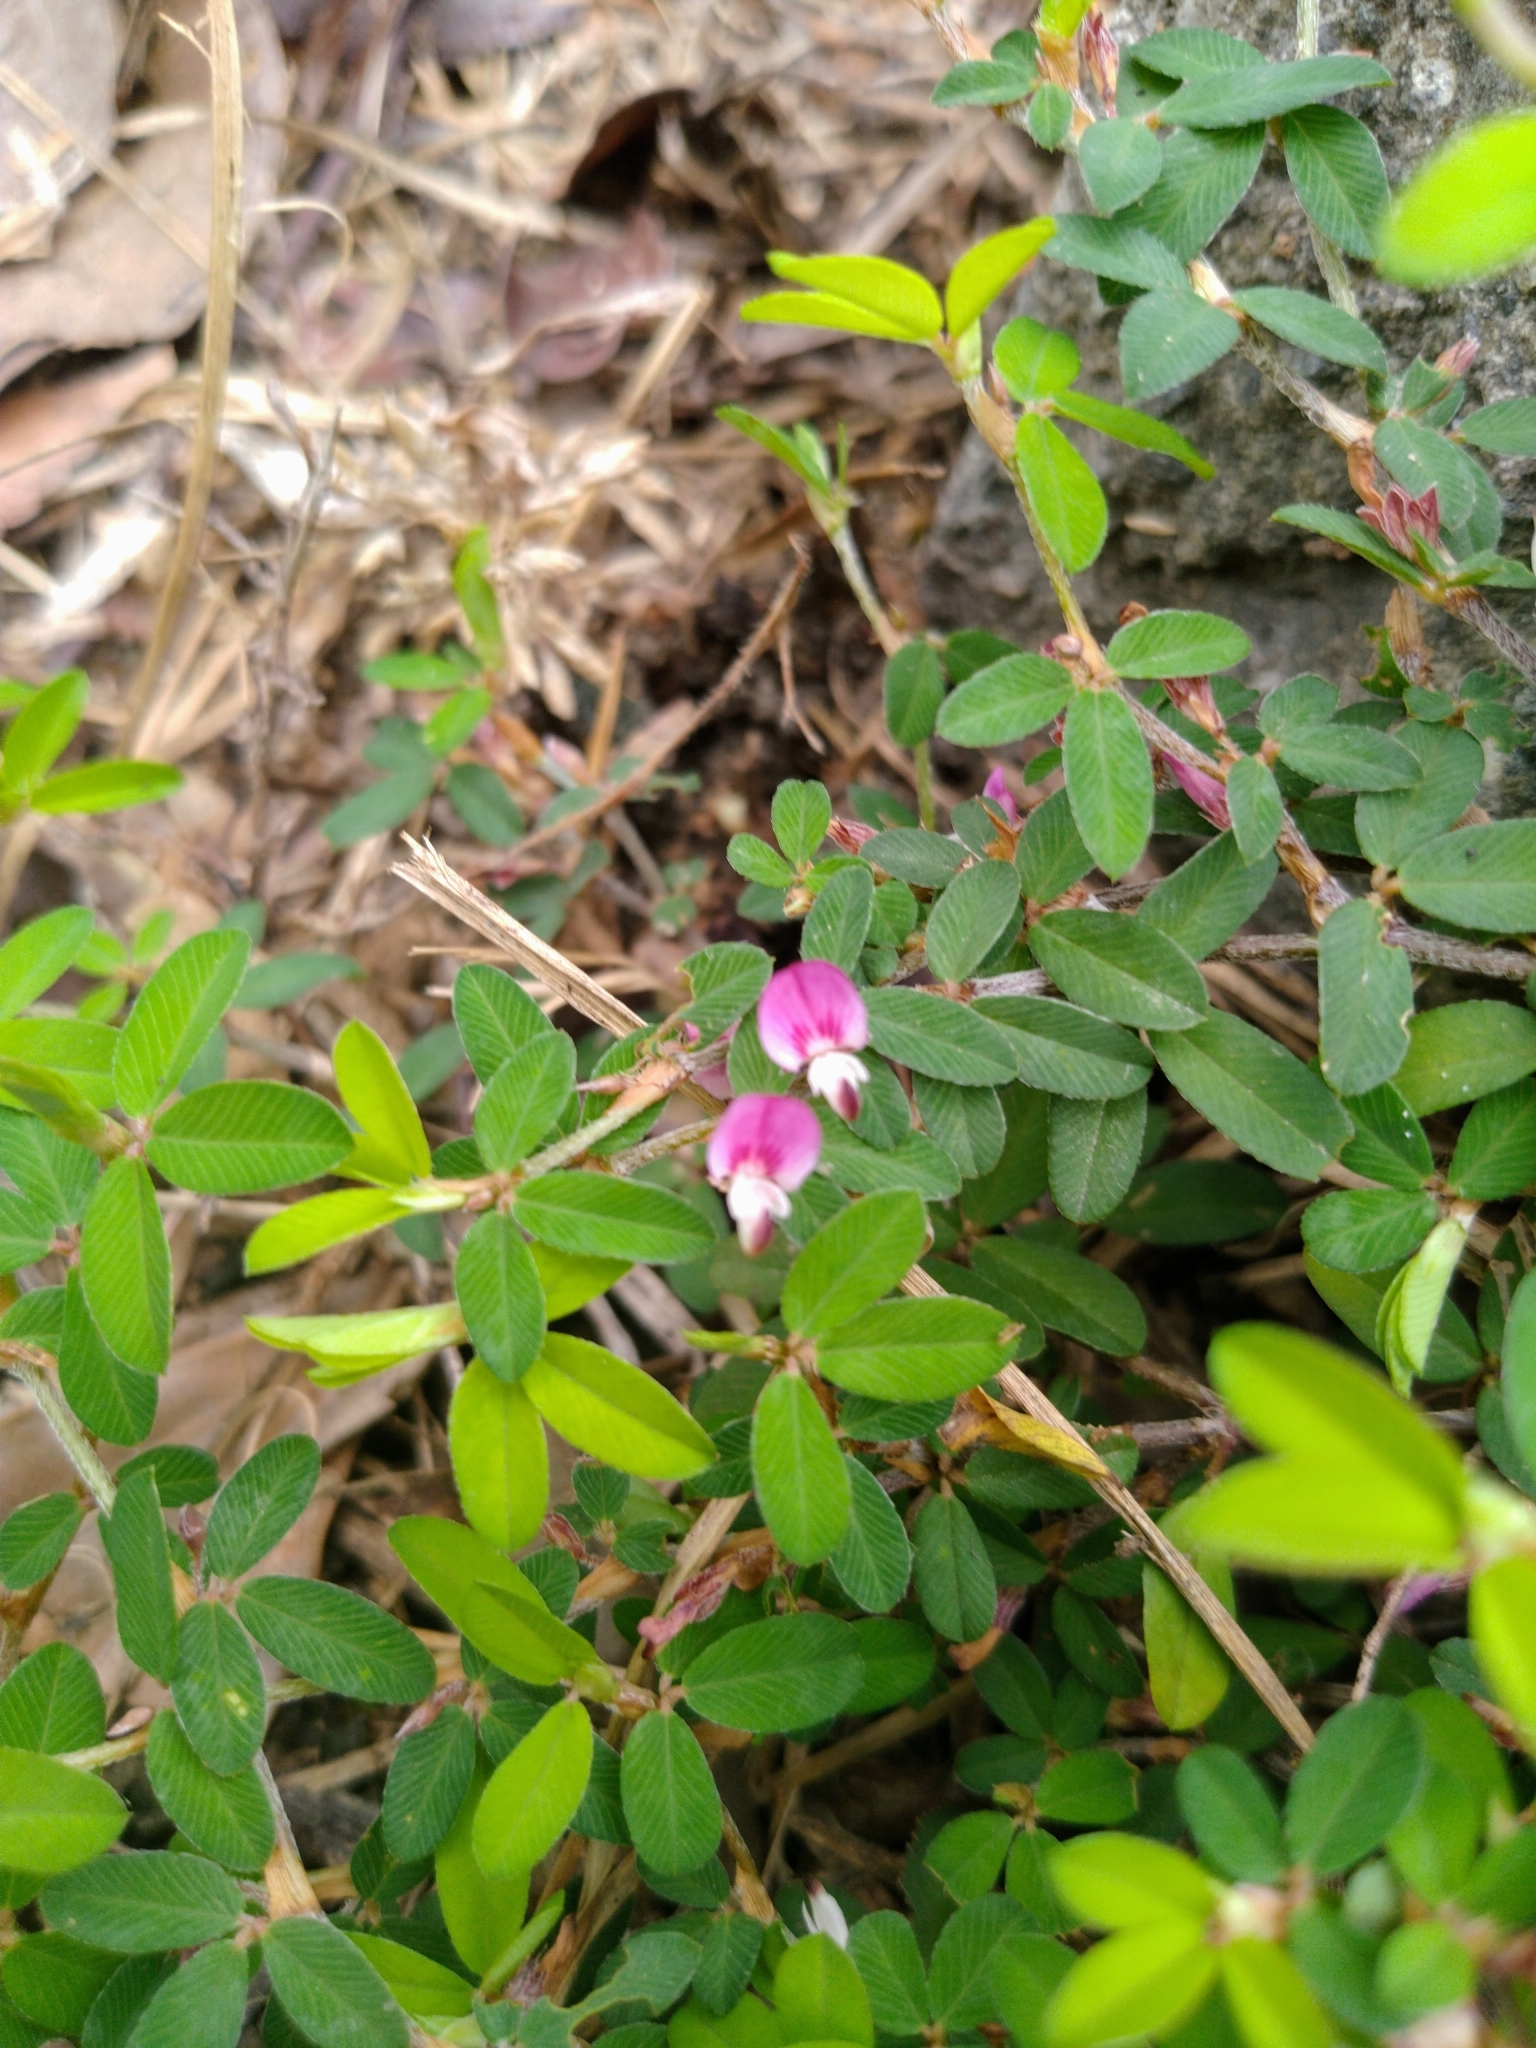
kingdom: Plantae
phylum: Tracheophyta
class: Magnoliopsida
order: Fabales
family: Fabaceae
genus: Kummerowia
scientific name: Kummerowia striata
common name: Japanese clover
